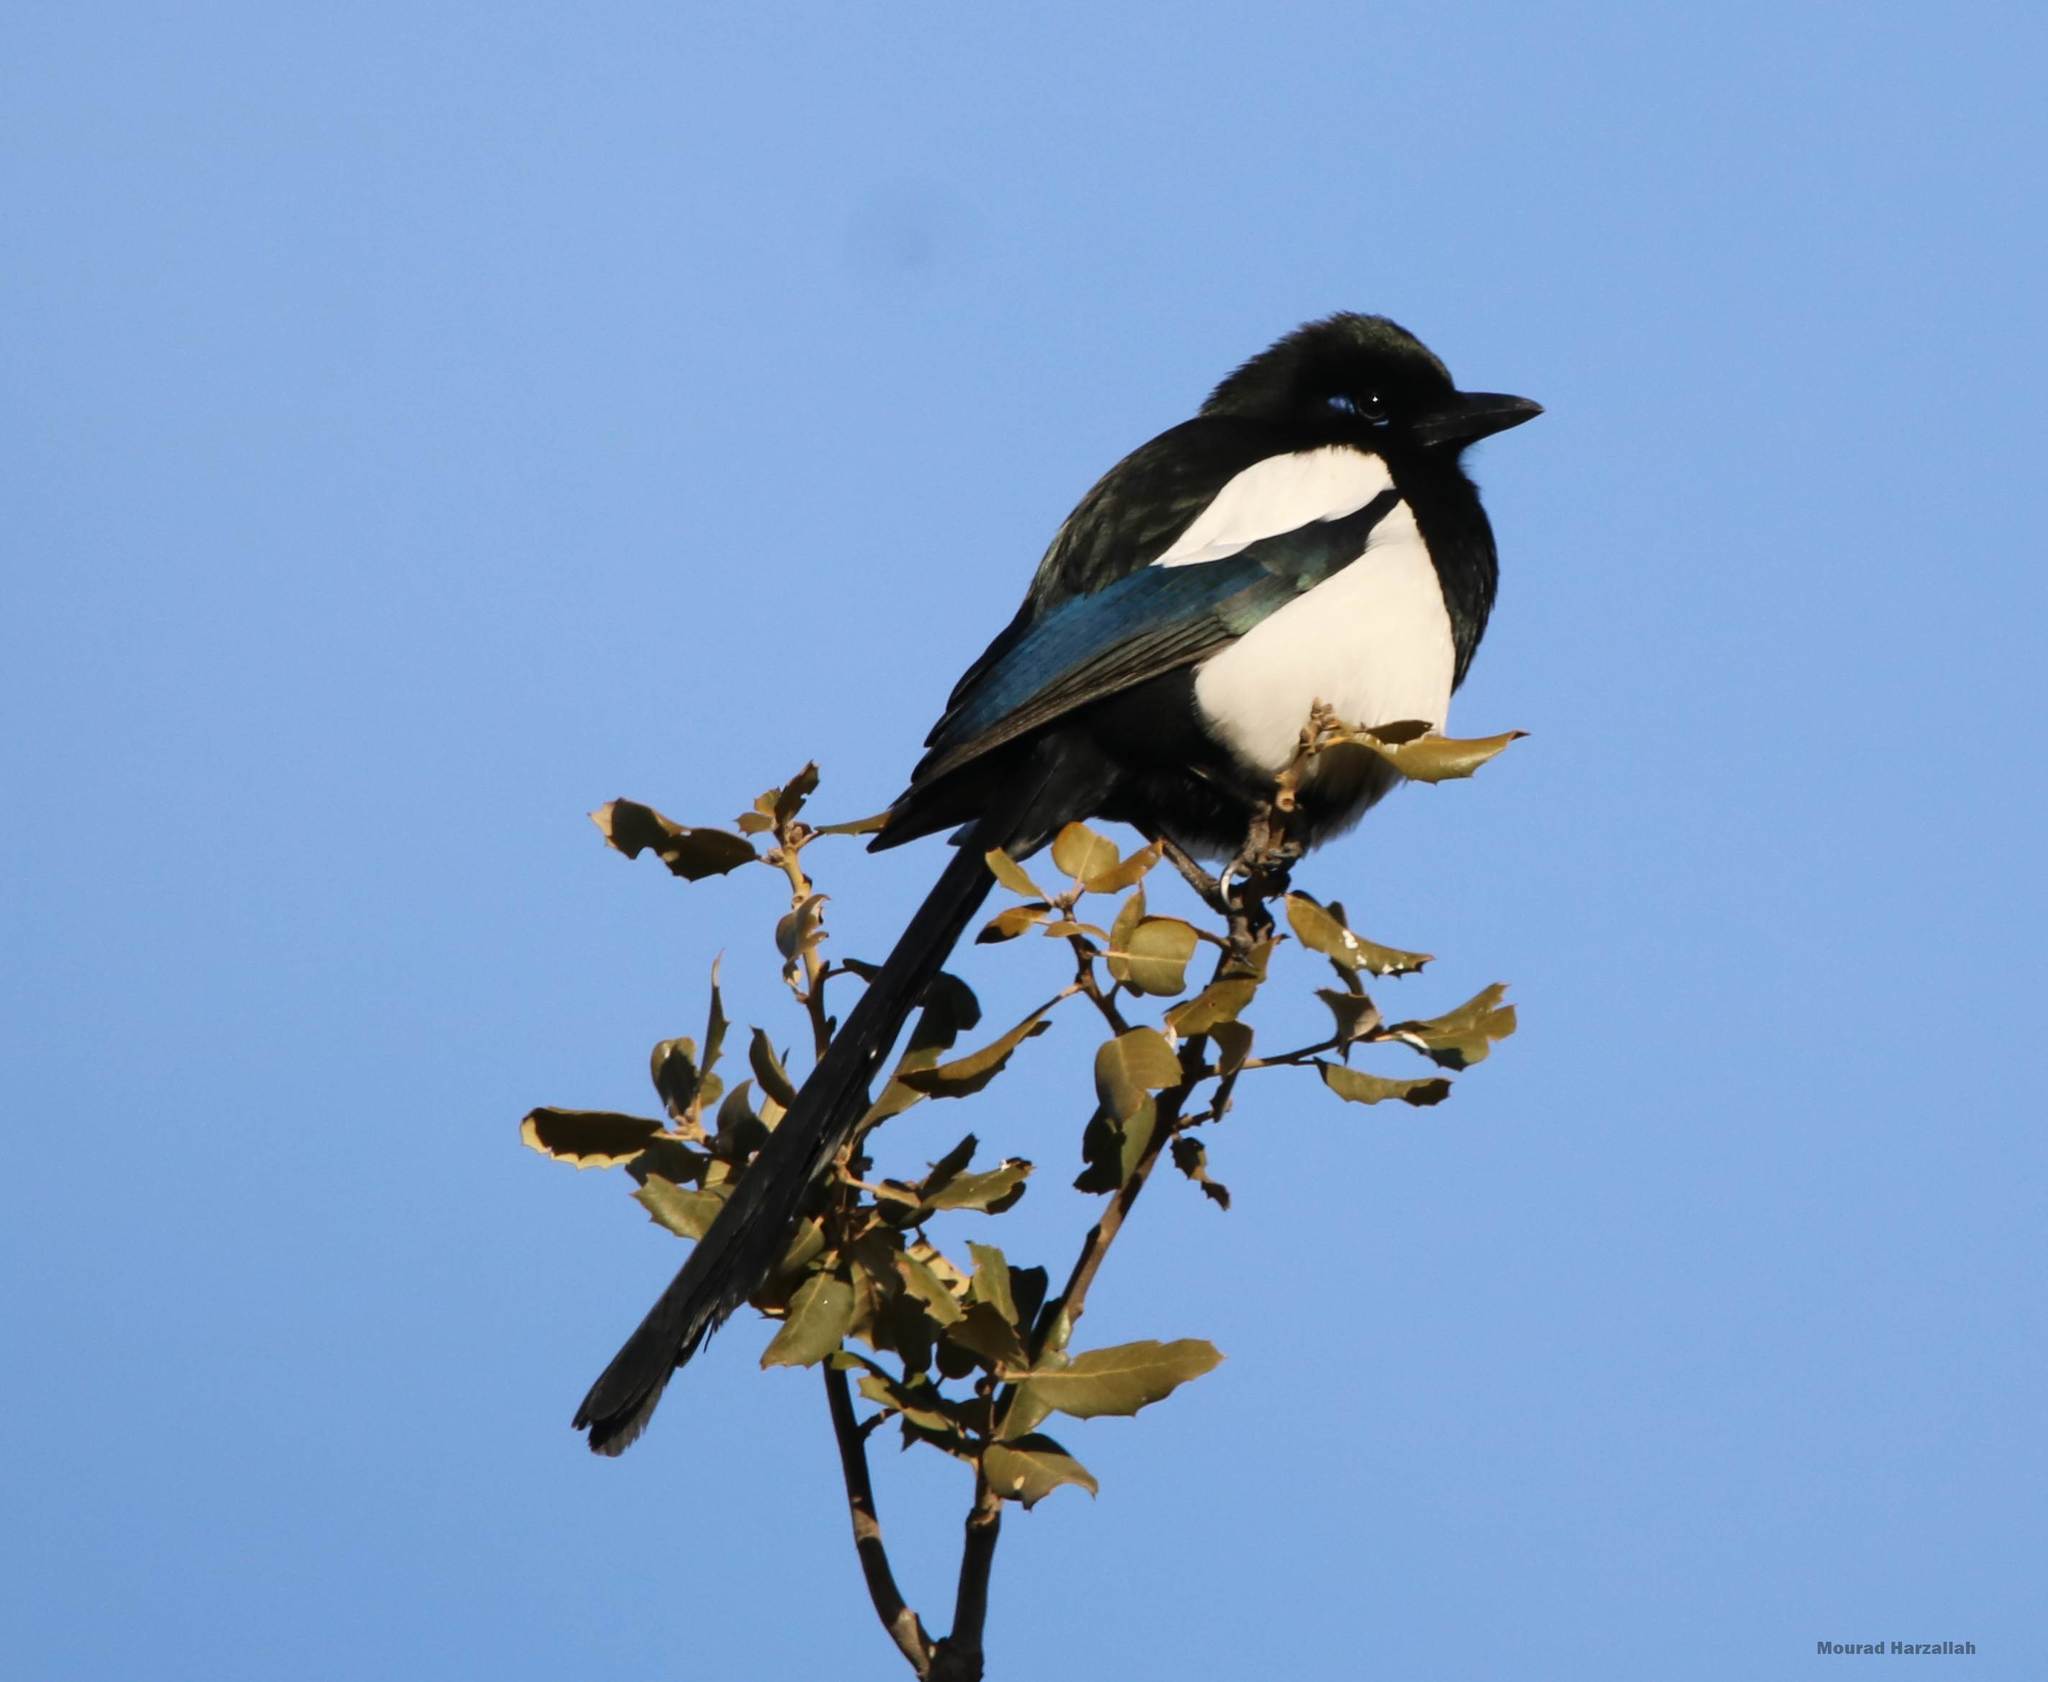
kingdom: Animalia
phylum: Chordata
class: Aves
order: Passeriformes
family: Corvidae
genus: Pica
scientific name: Pica mauritanica
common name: Maghreb magpie
